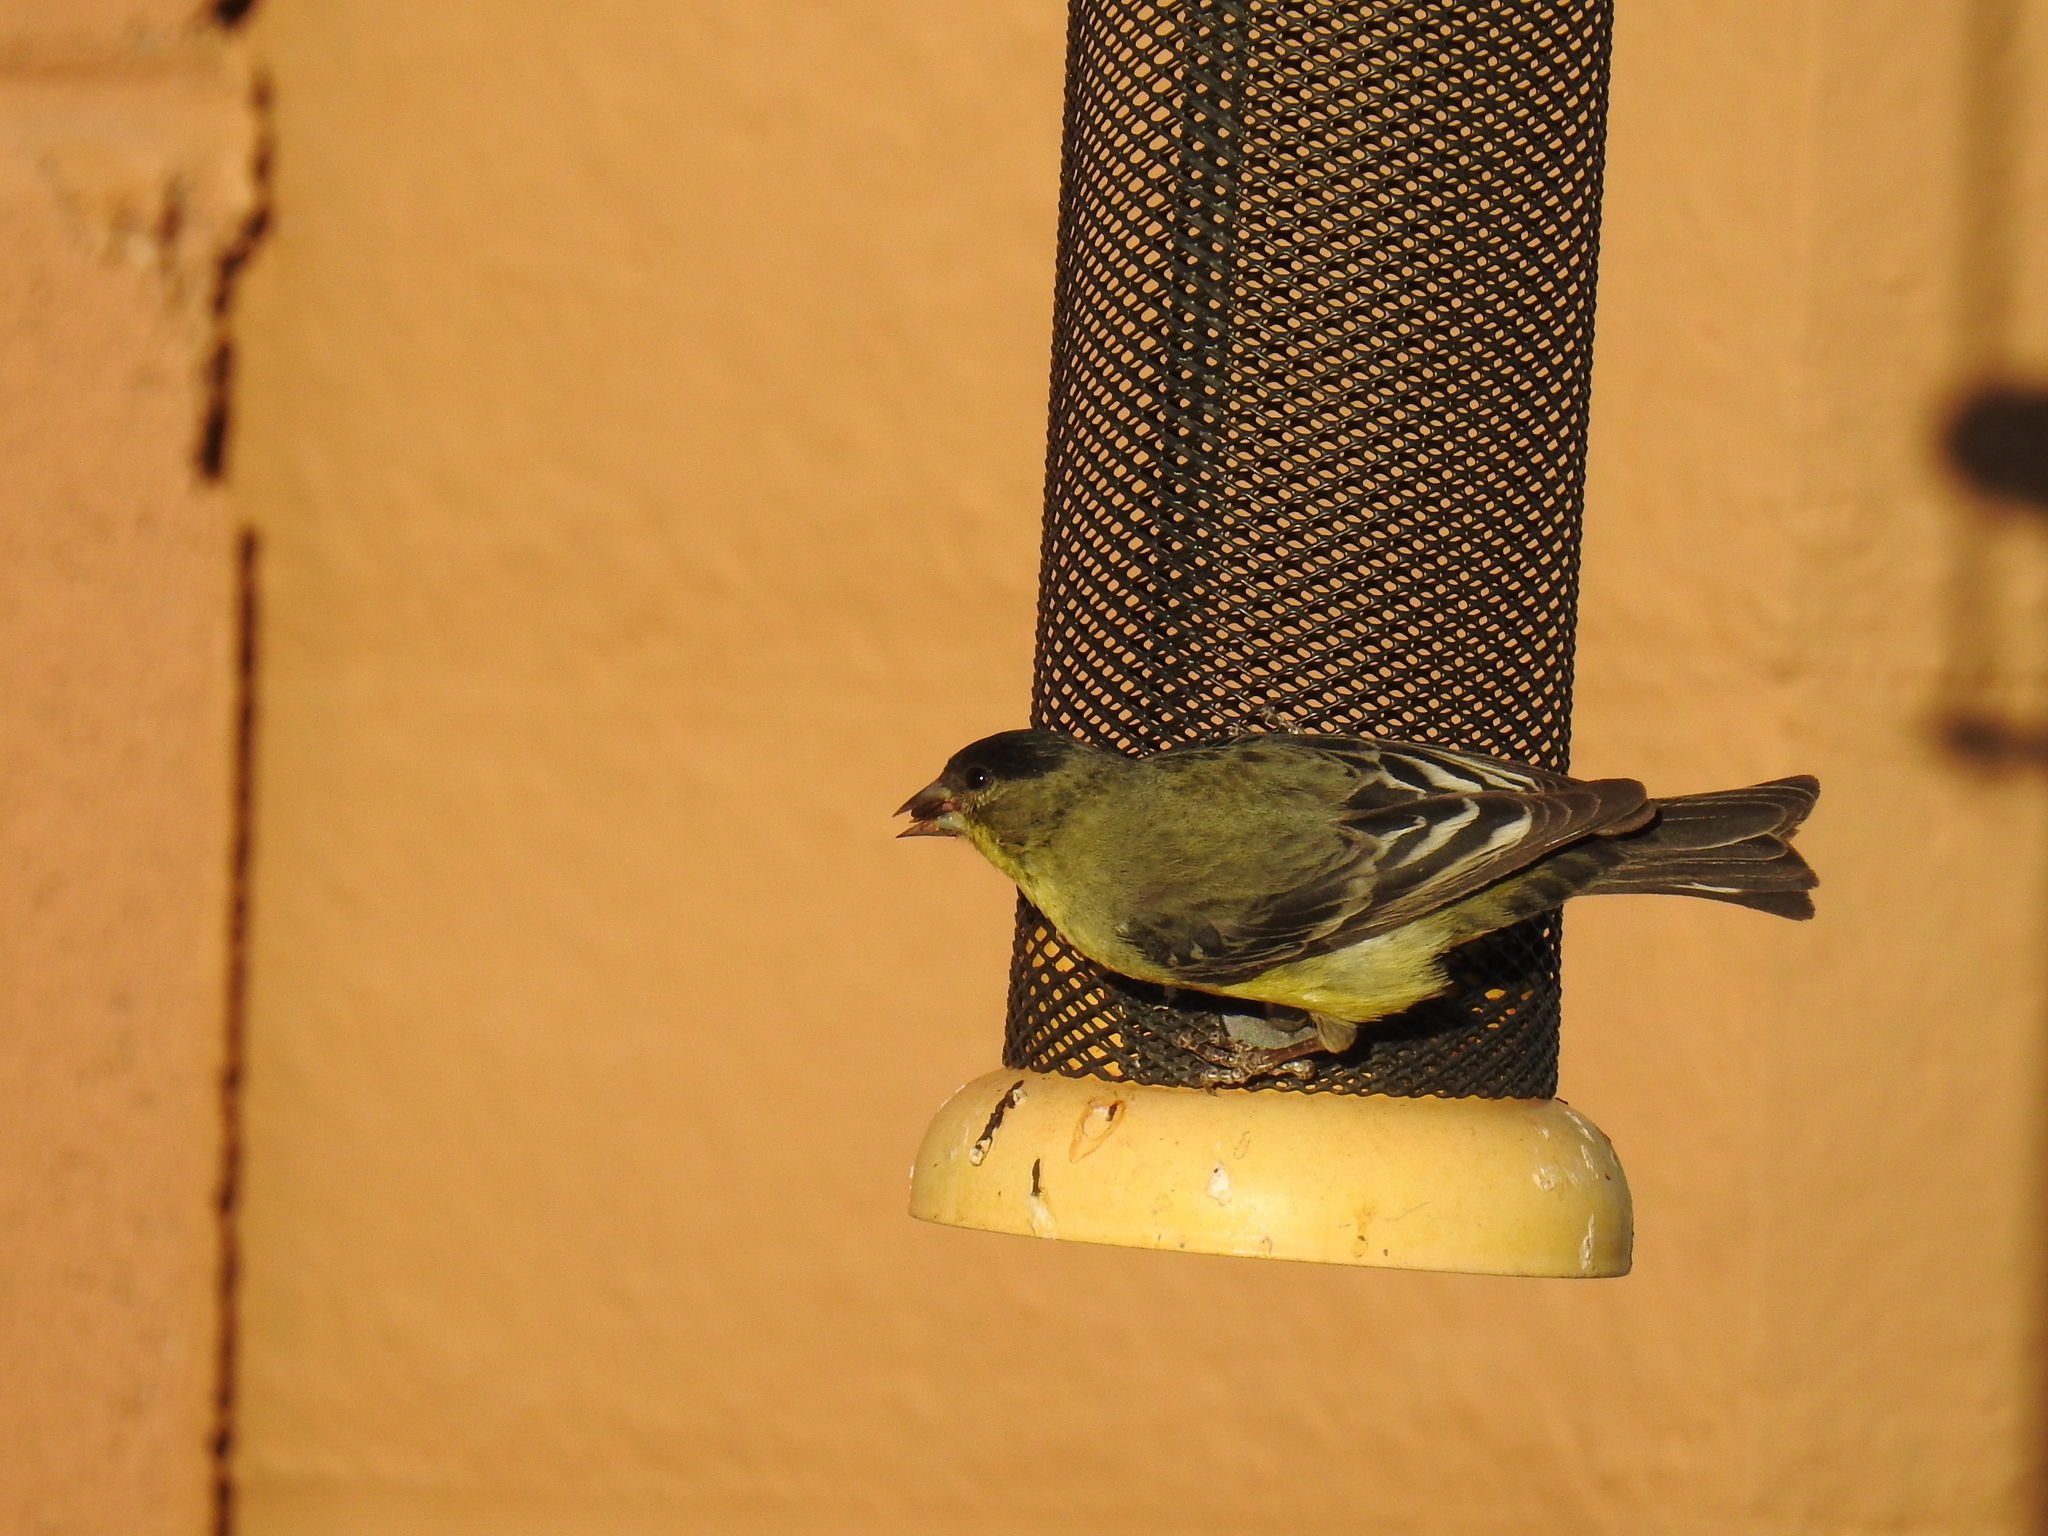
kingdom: Animalia
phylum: Chordata
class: Aves
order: Passeriformes
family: Fringillidae
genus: Spinus
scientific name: Spinus psaltria
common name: Lesser goldfinch
